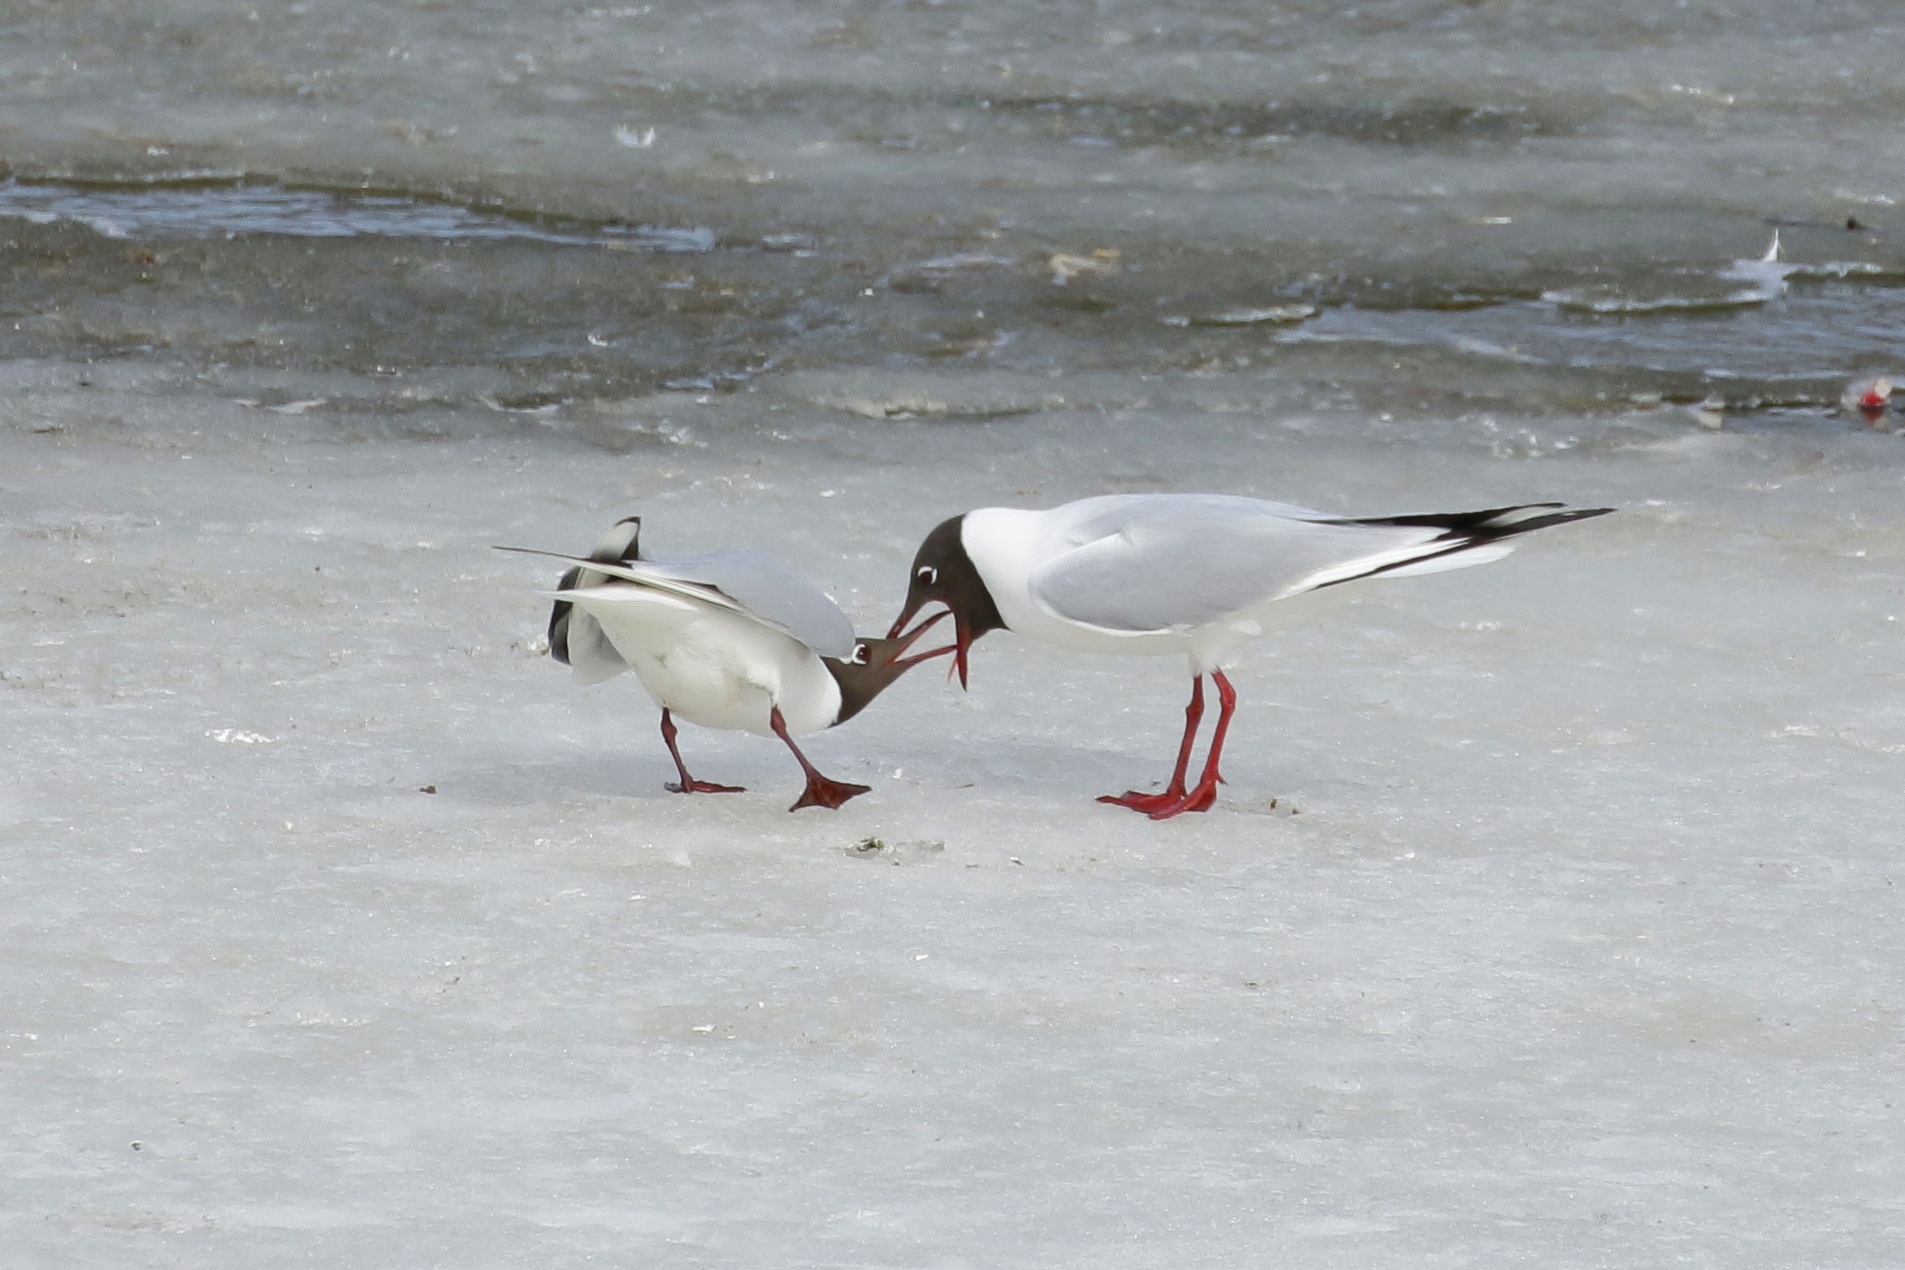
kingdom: Animalia
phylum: Chordata
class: Aves
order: Charadriiformes
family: Laridae
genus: Chroicocephalus
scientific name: Chroicocephalus ridibundus
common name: Black-headed gull
